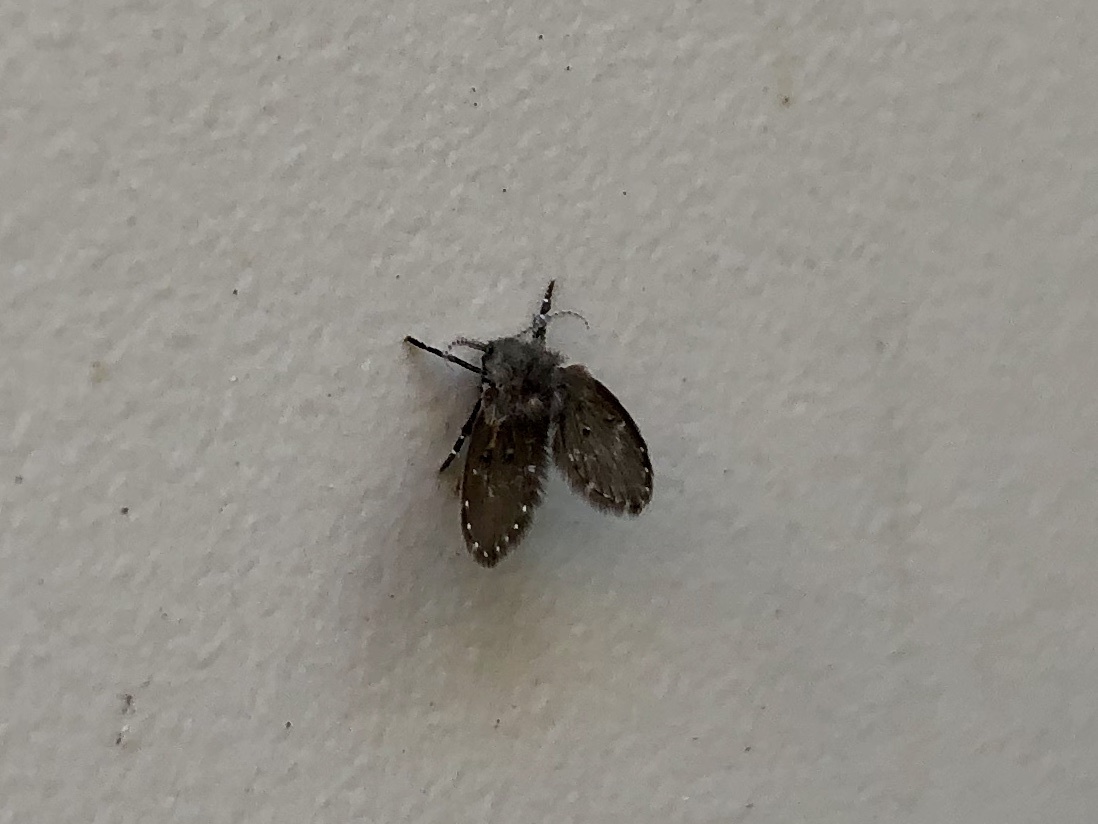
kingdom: Animalia
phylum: Arthropoda
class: Insecta
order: Diptera
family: Psychodidae
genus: Clogmia
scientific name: Clogmia albipunctatus
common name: White-spotted moth fly
